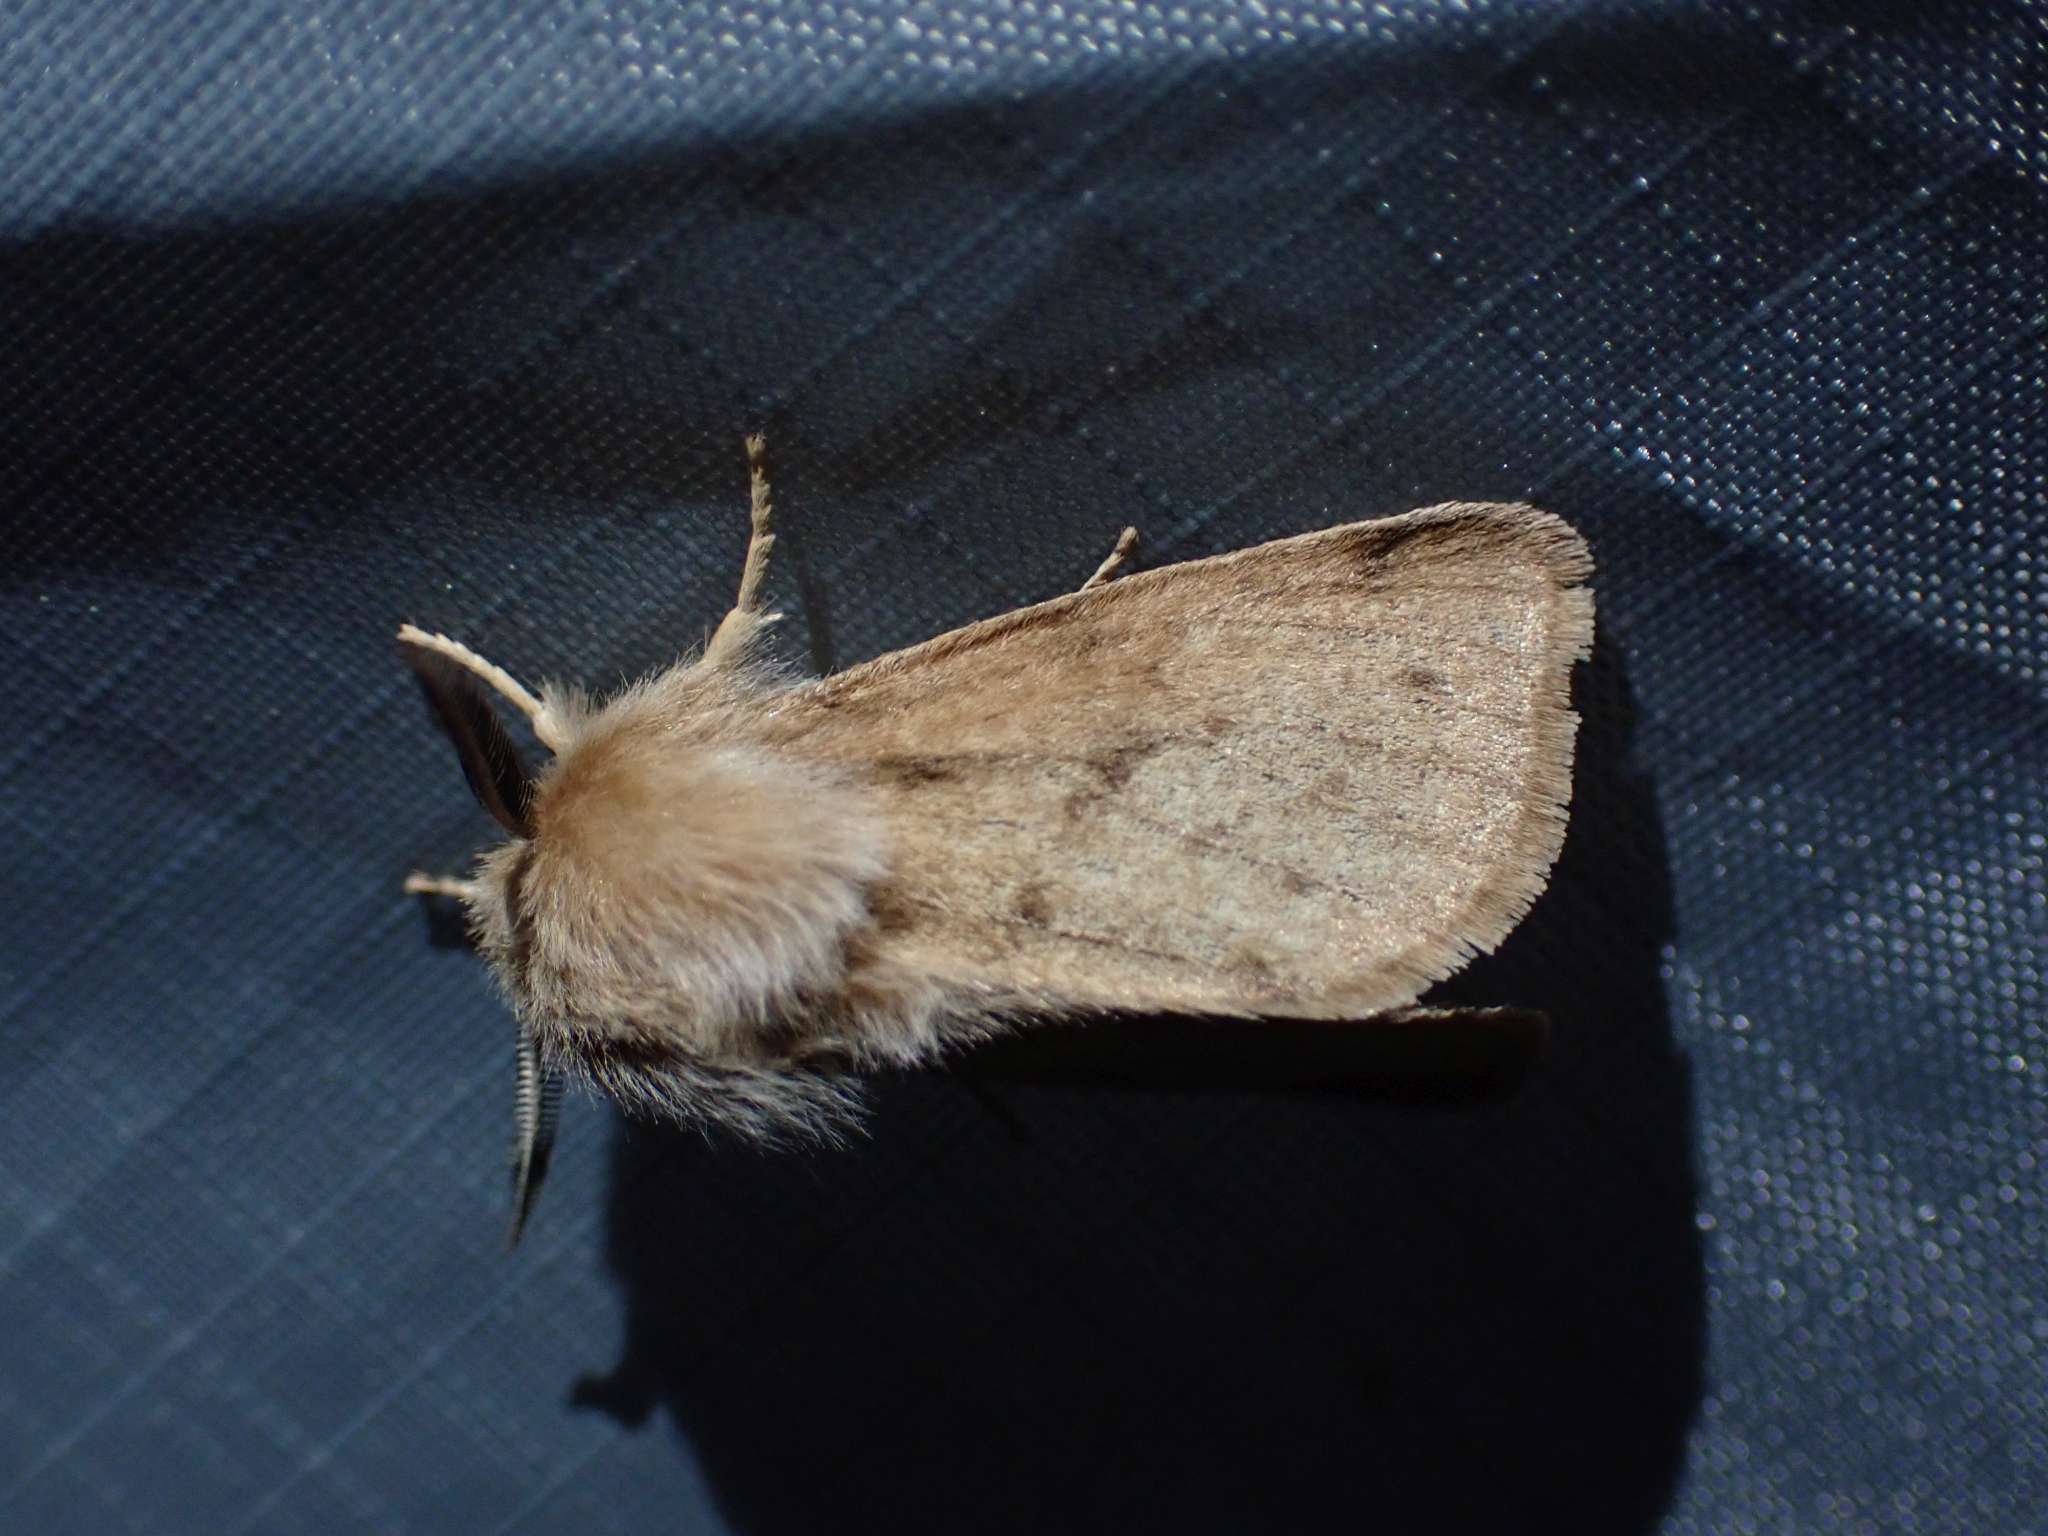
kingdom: Animalia
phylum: Arthropoda
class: Insecta
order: Lepidoptera
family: Erebidae
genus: Spilosoma
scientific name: Spilosoma vagans
